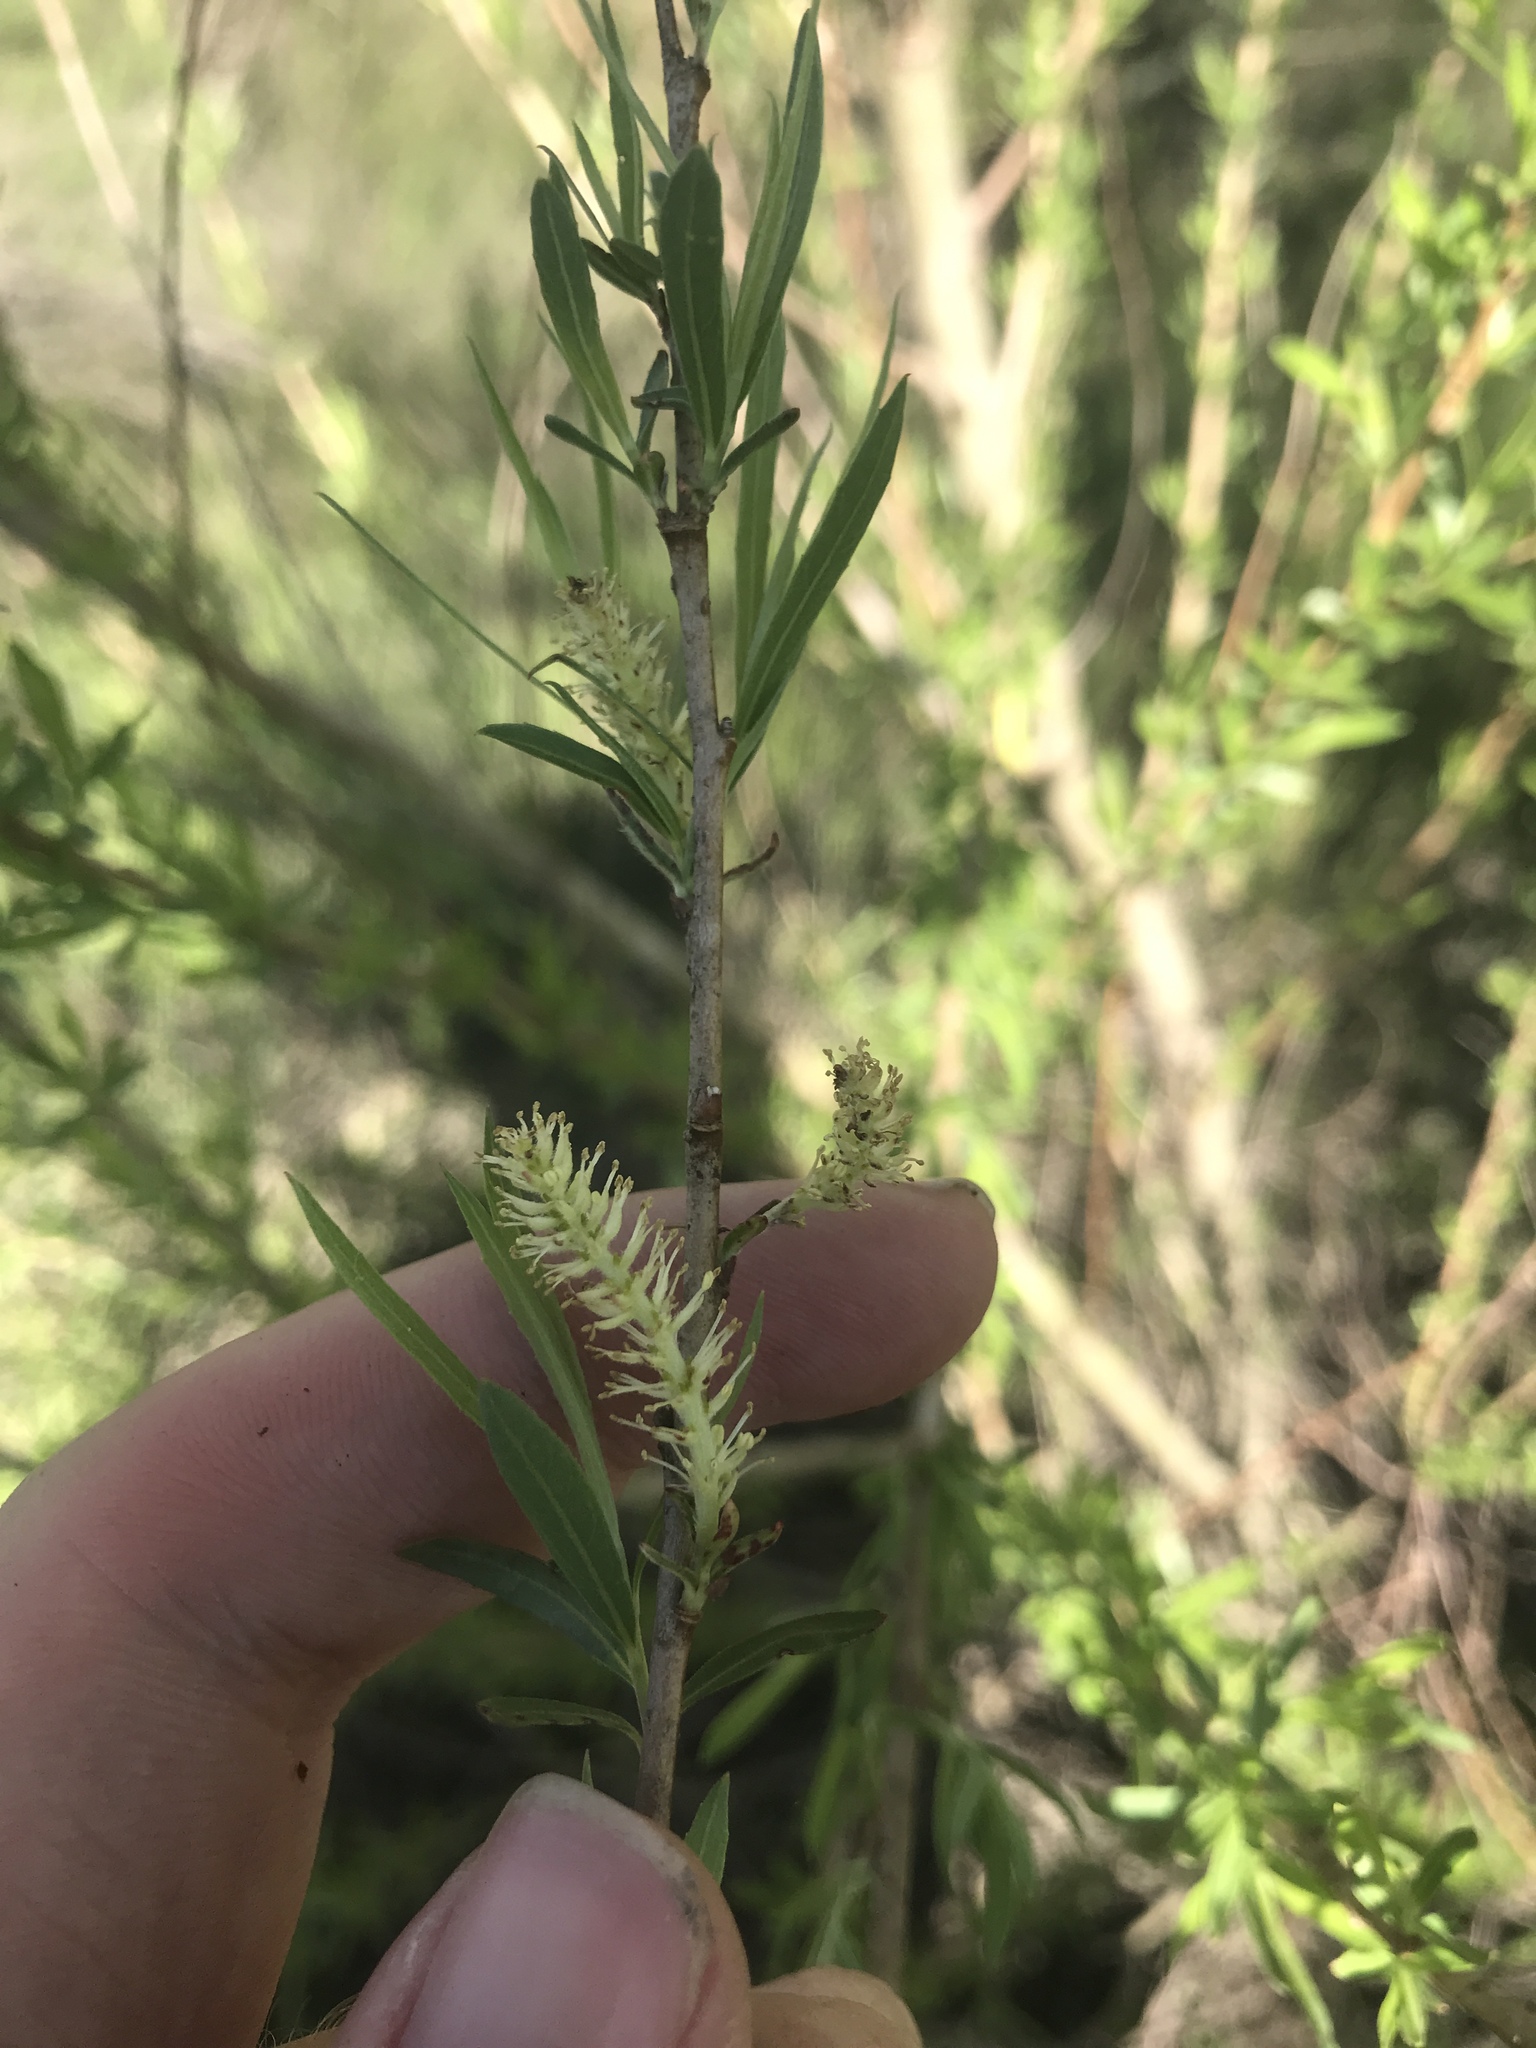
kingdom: Plantae
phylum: Tracheophyta
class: Magnoliopsida
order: Malpighiales
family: Salicaceae
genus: Salix
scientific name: Salix nigra
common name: Black willow
